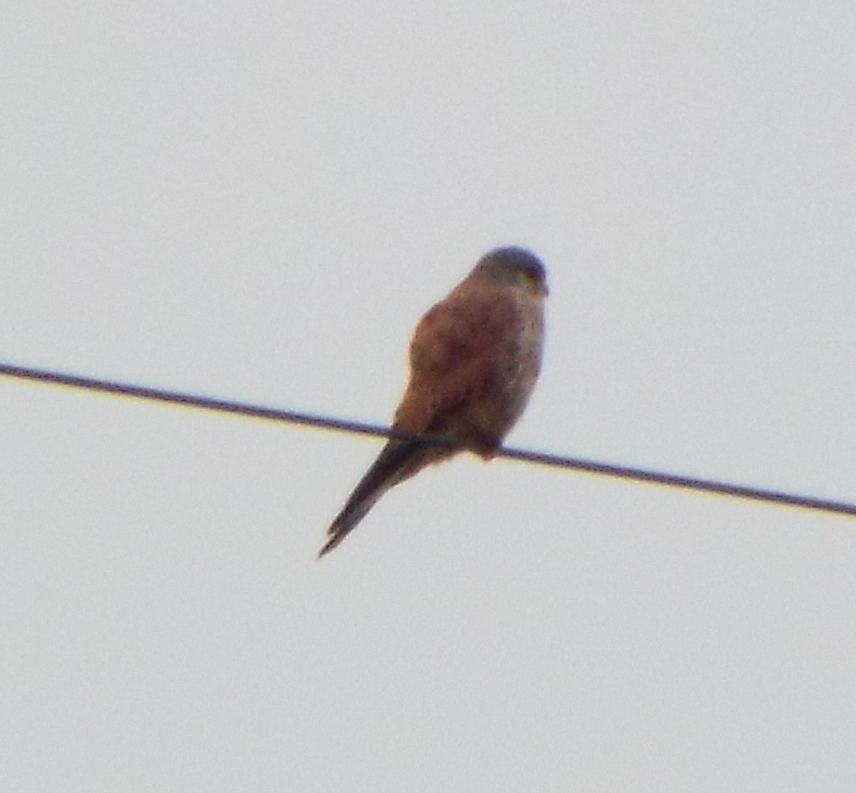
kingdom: Animalia
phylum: Chordata
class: Aves
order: Falconiformes
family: Falconidae
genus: Falco
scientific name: Falco tinnunculus
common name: Common kestrel
